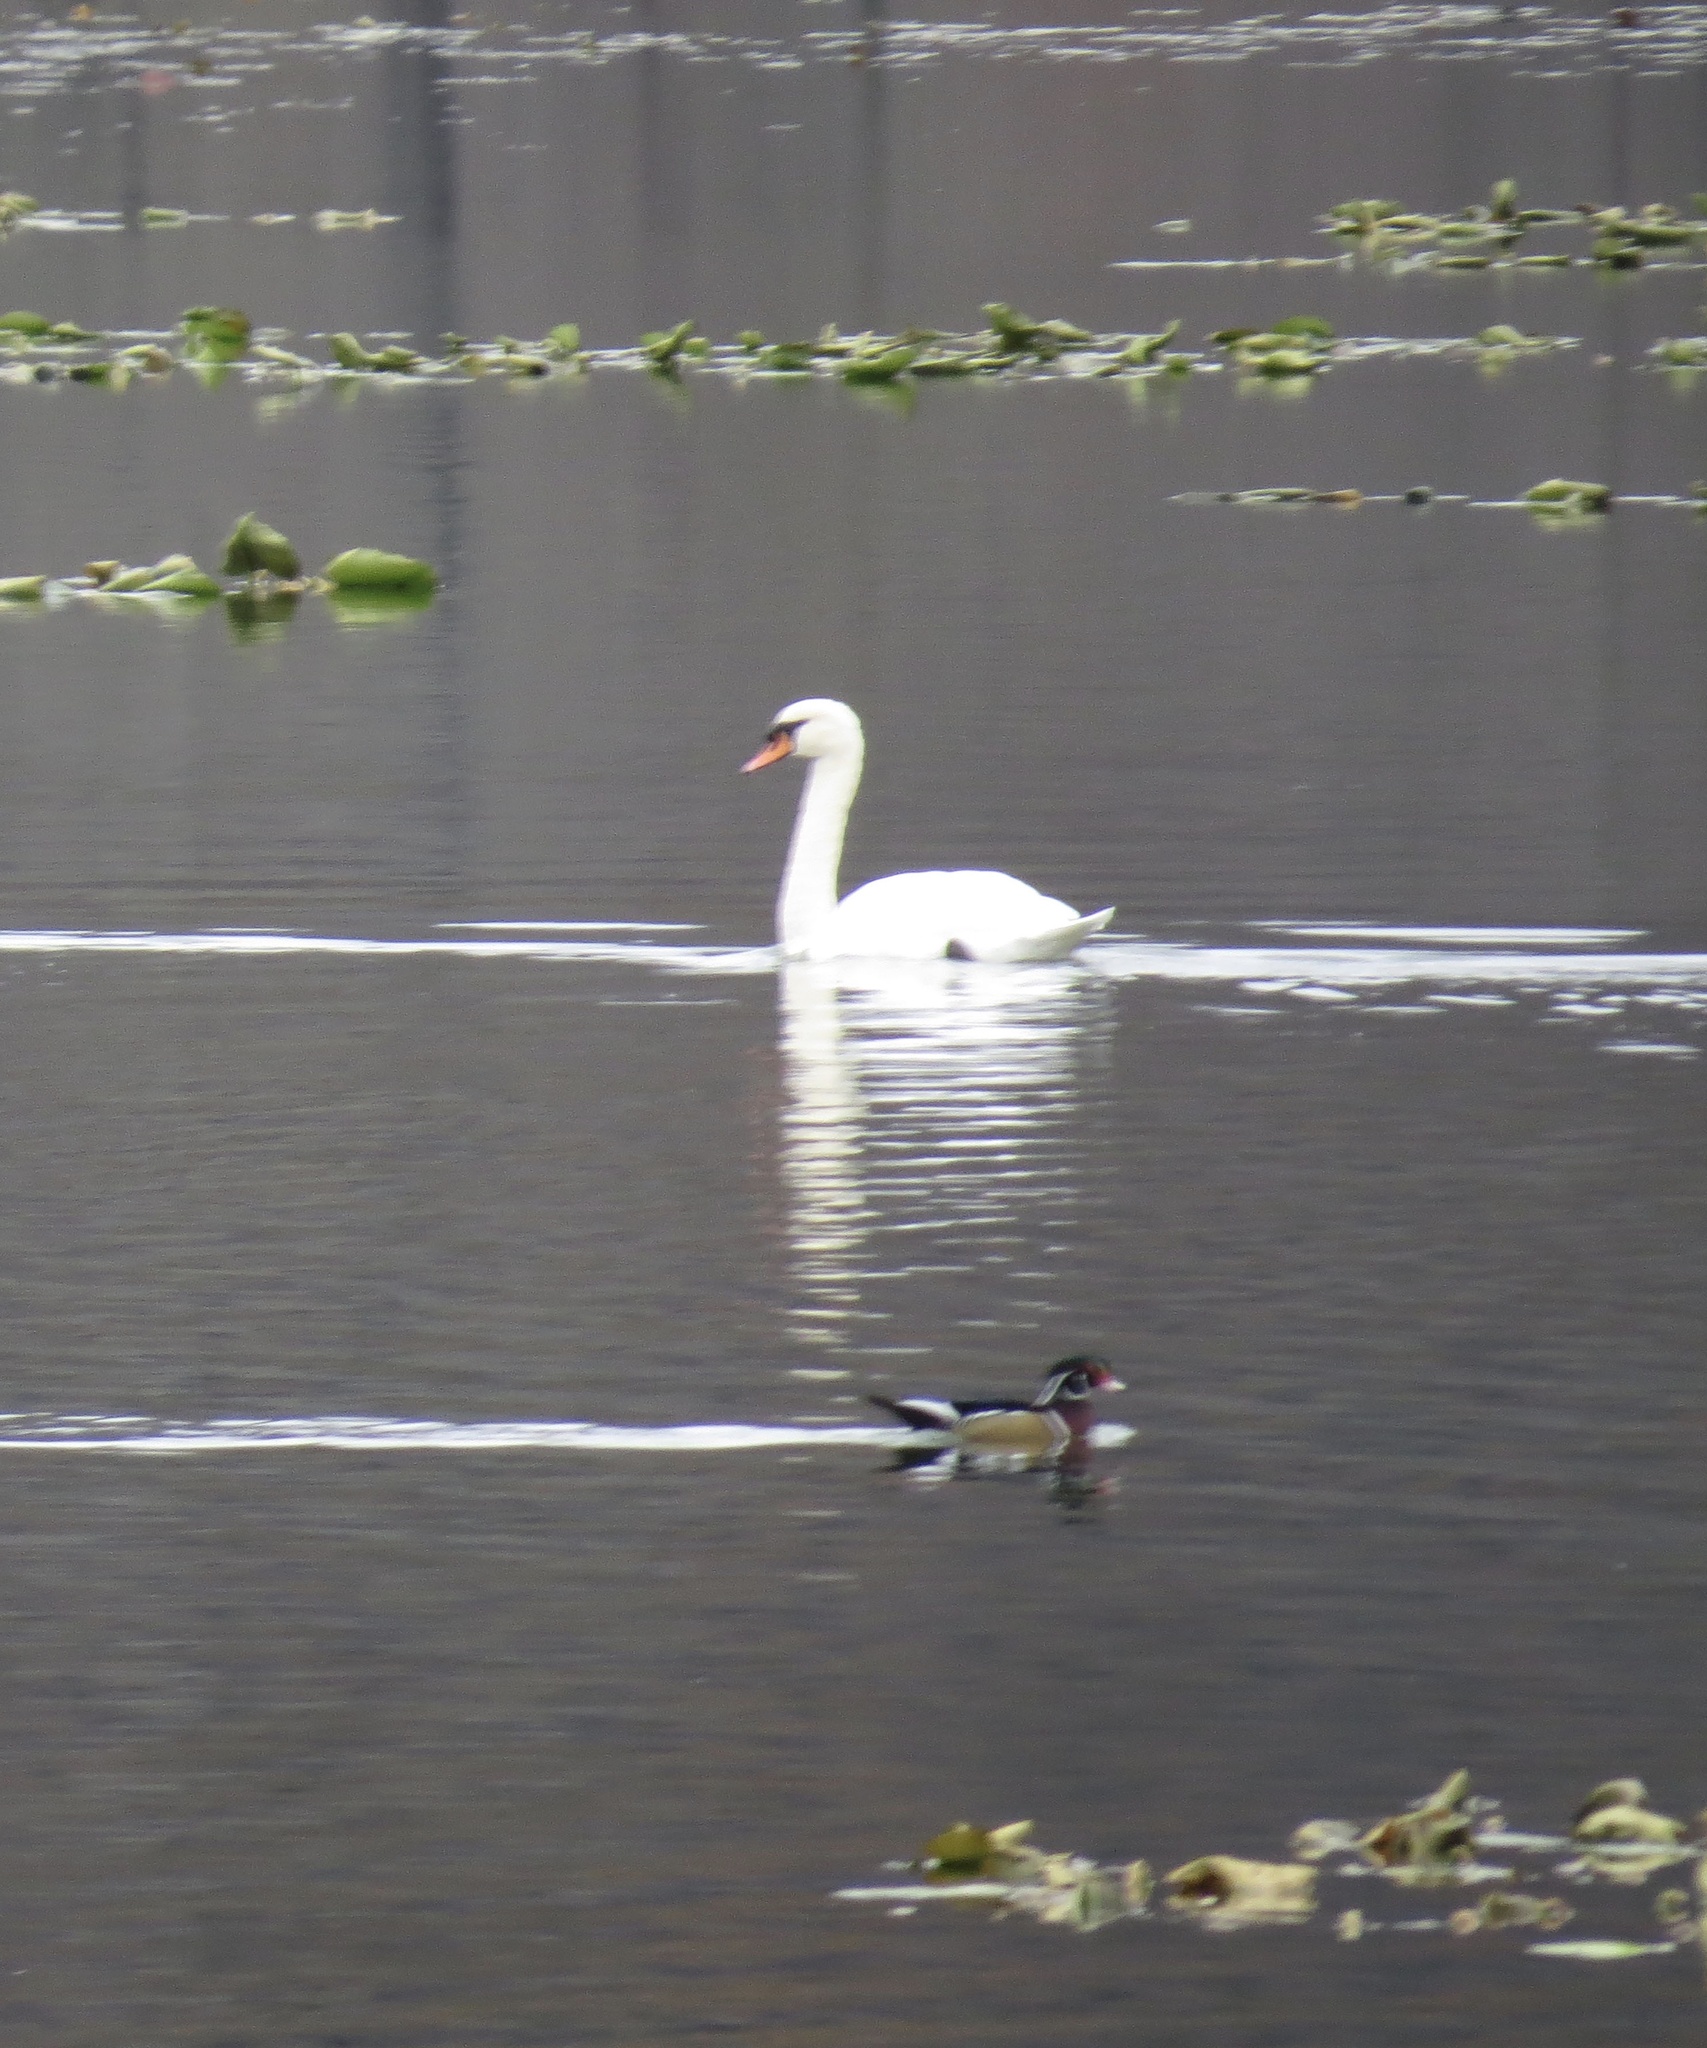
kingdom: Animalia
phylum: Chordata
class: Aves
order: Anseriformes
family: Anatidae
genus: Aix
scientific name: Aix sponsa
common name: Wood duck
